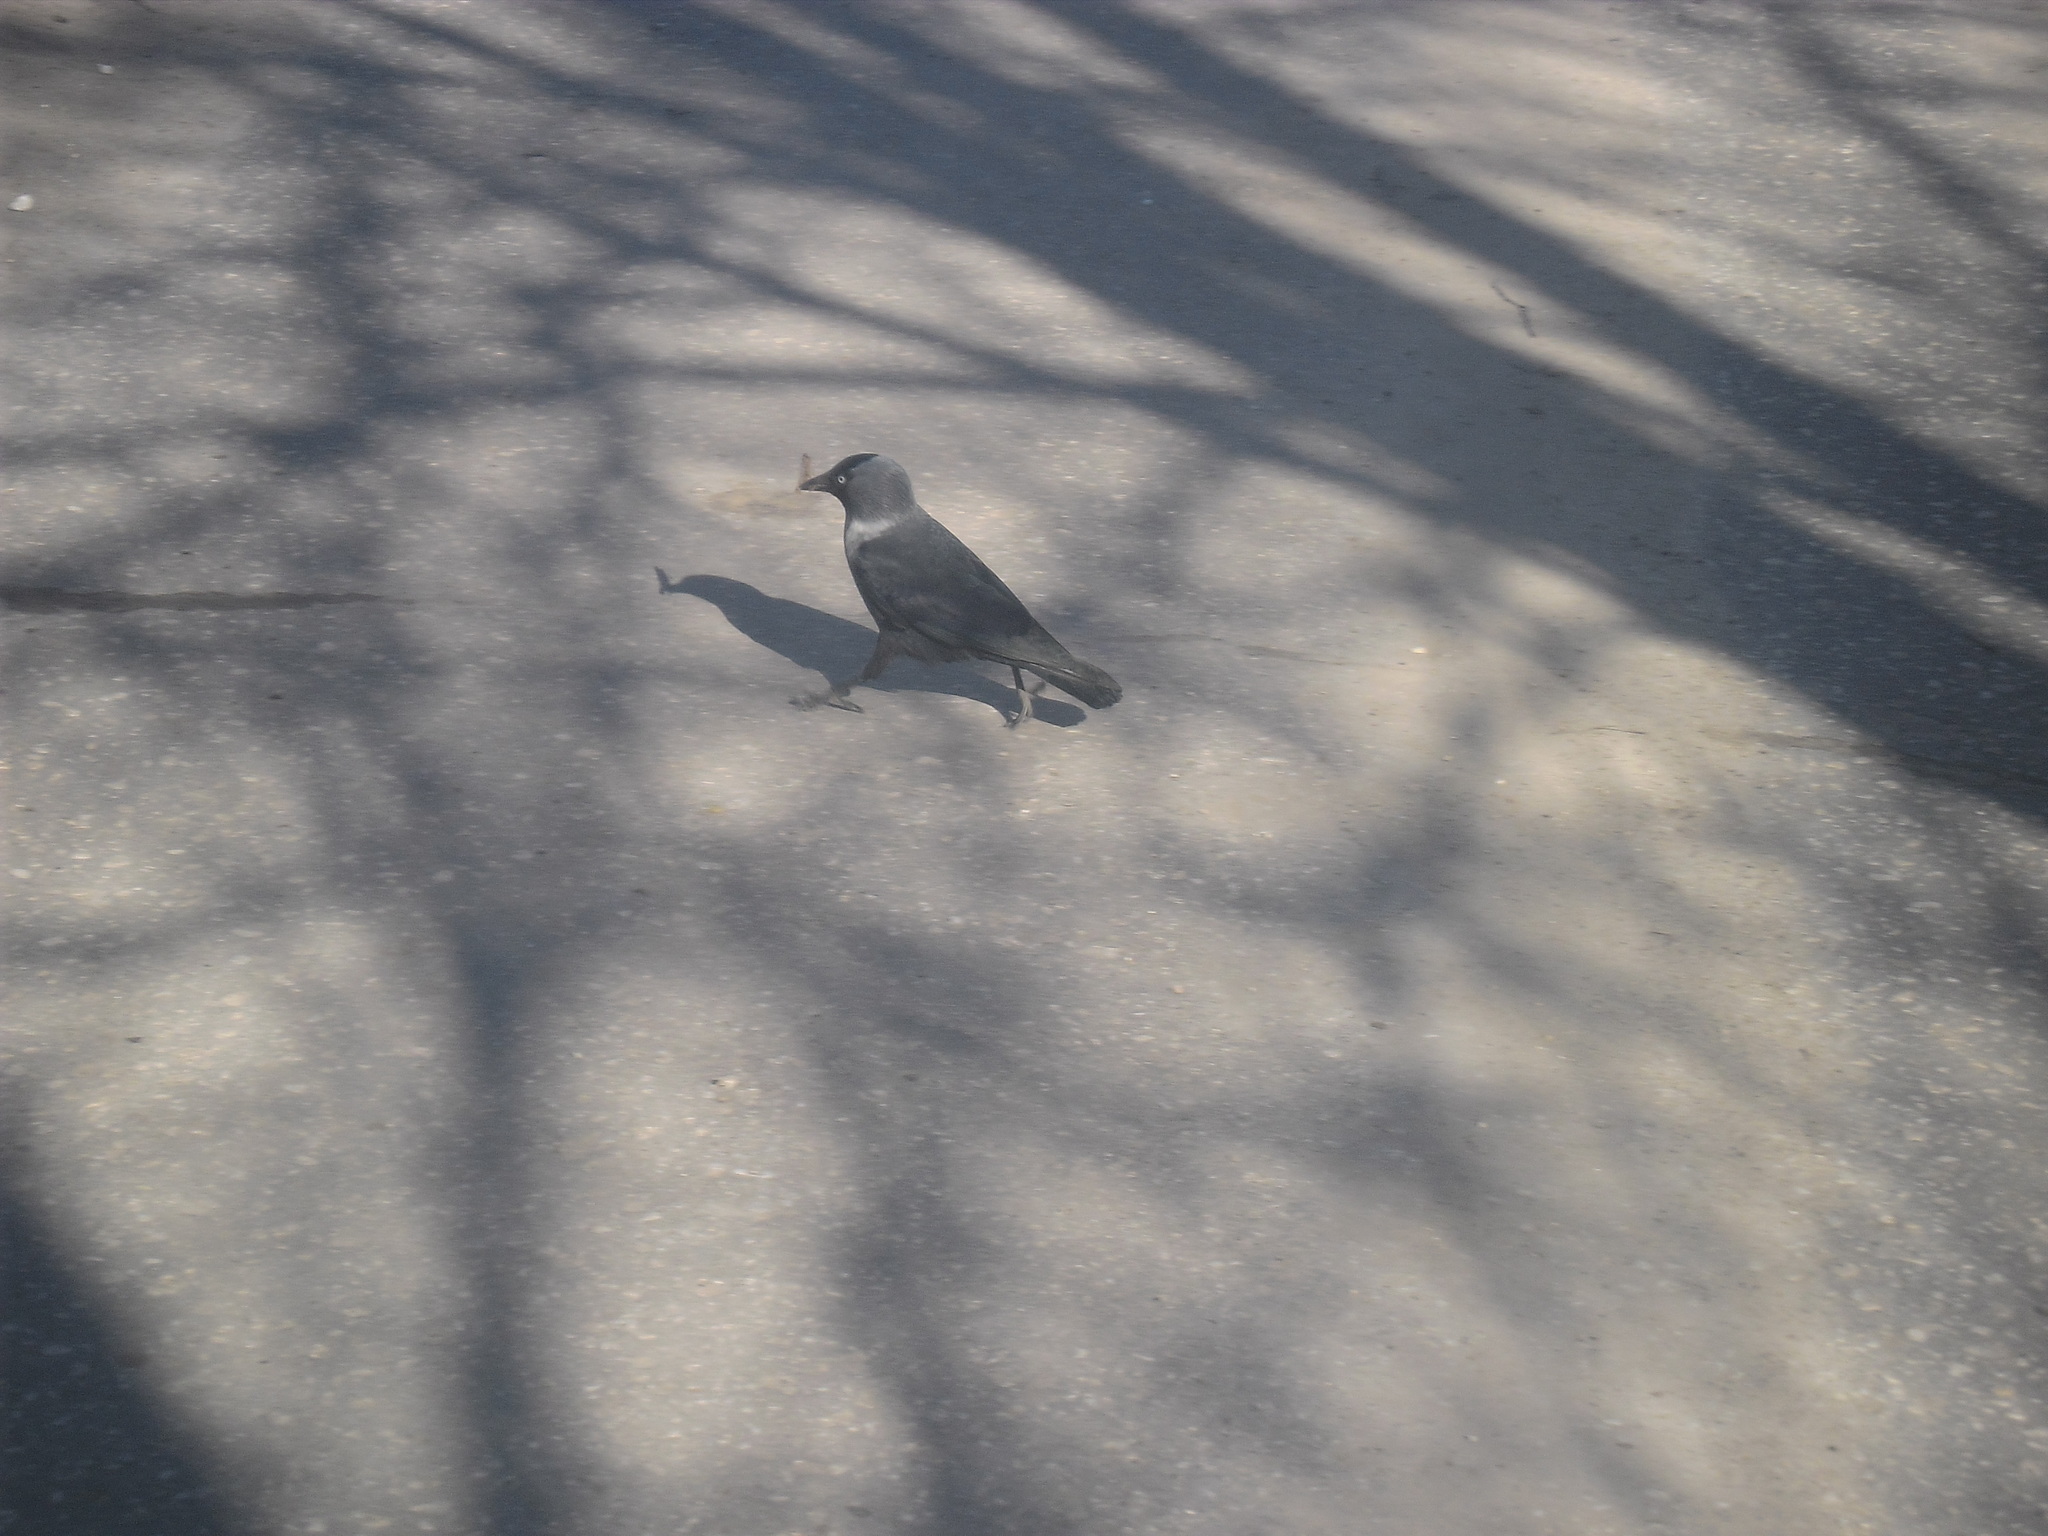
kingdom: Animalia
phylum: Chordata
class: Aves
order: Passeriformes
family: Corvidae
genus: Coloeus
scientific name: Coloeus monedula
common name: Western jackdaw
